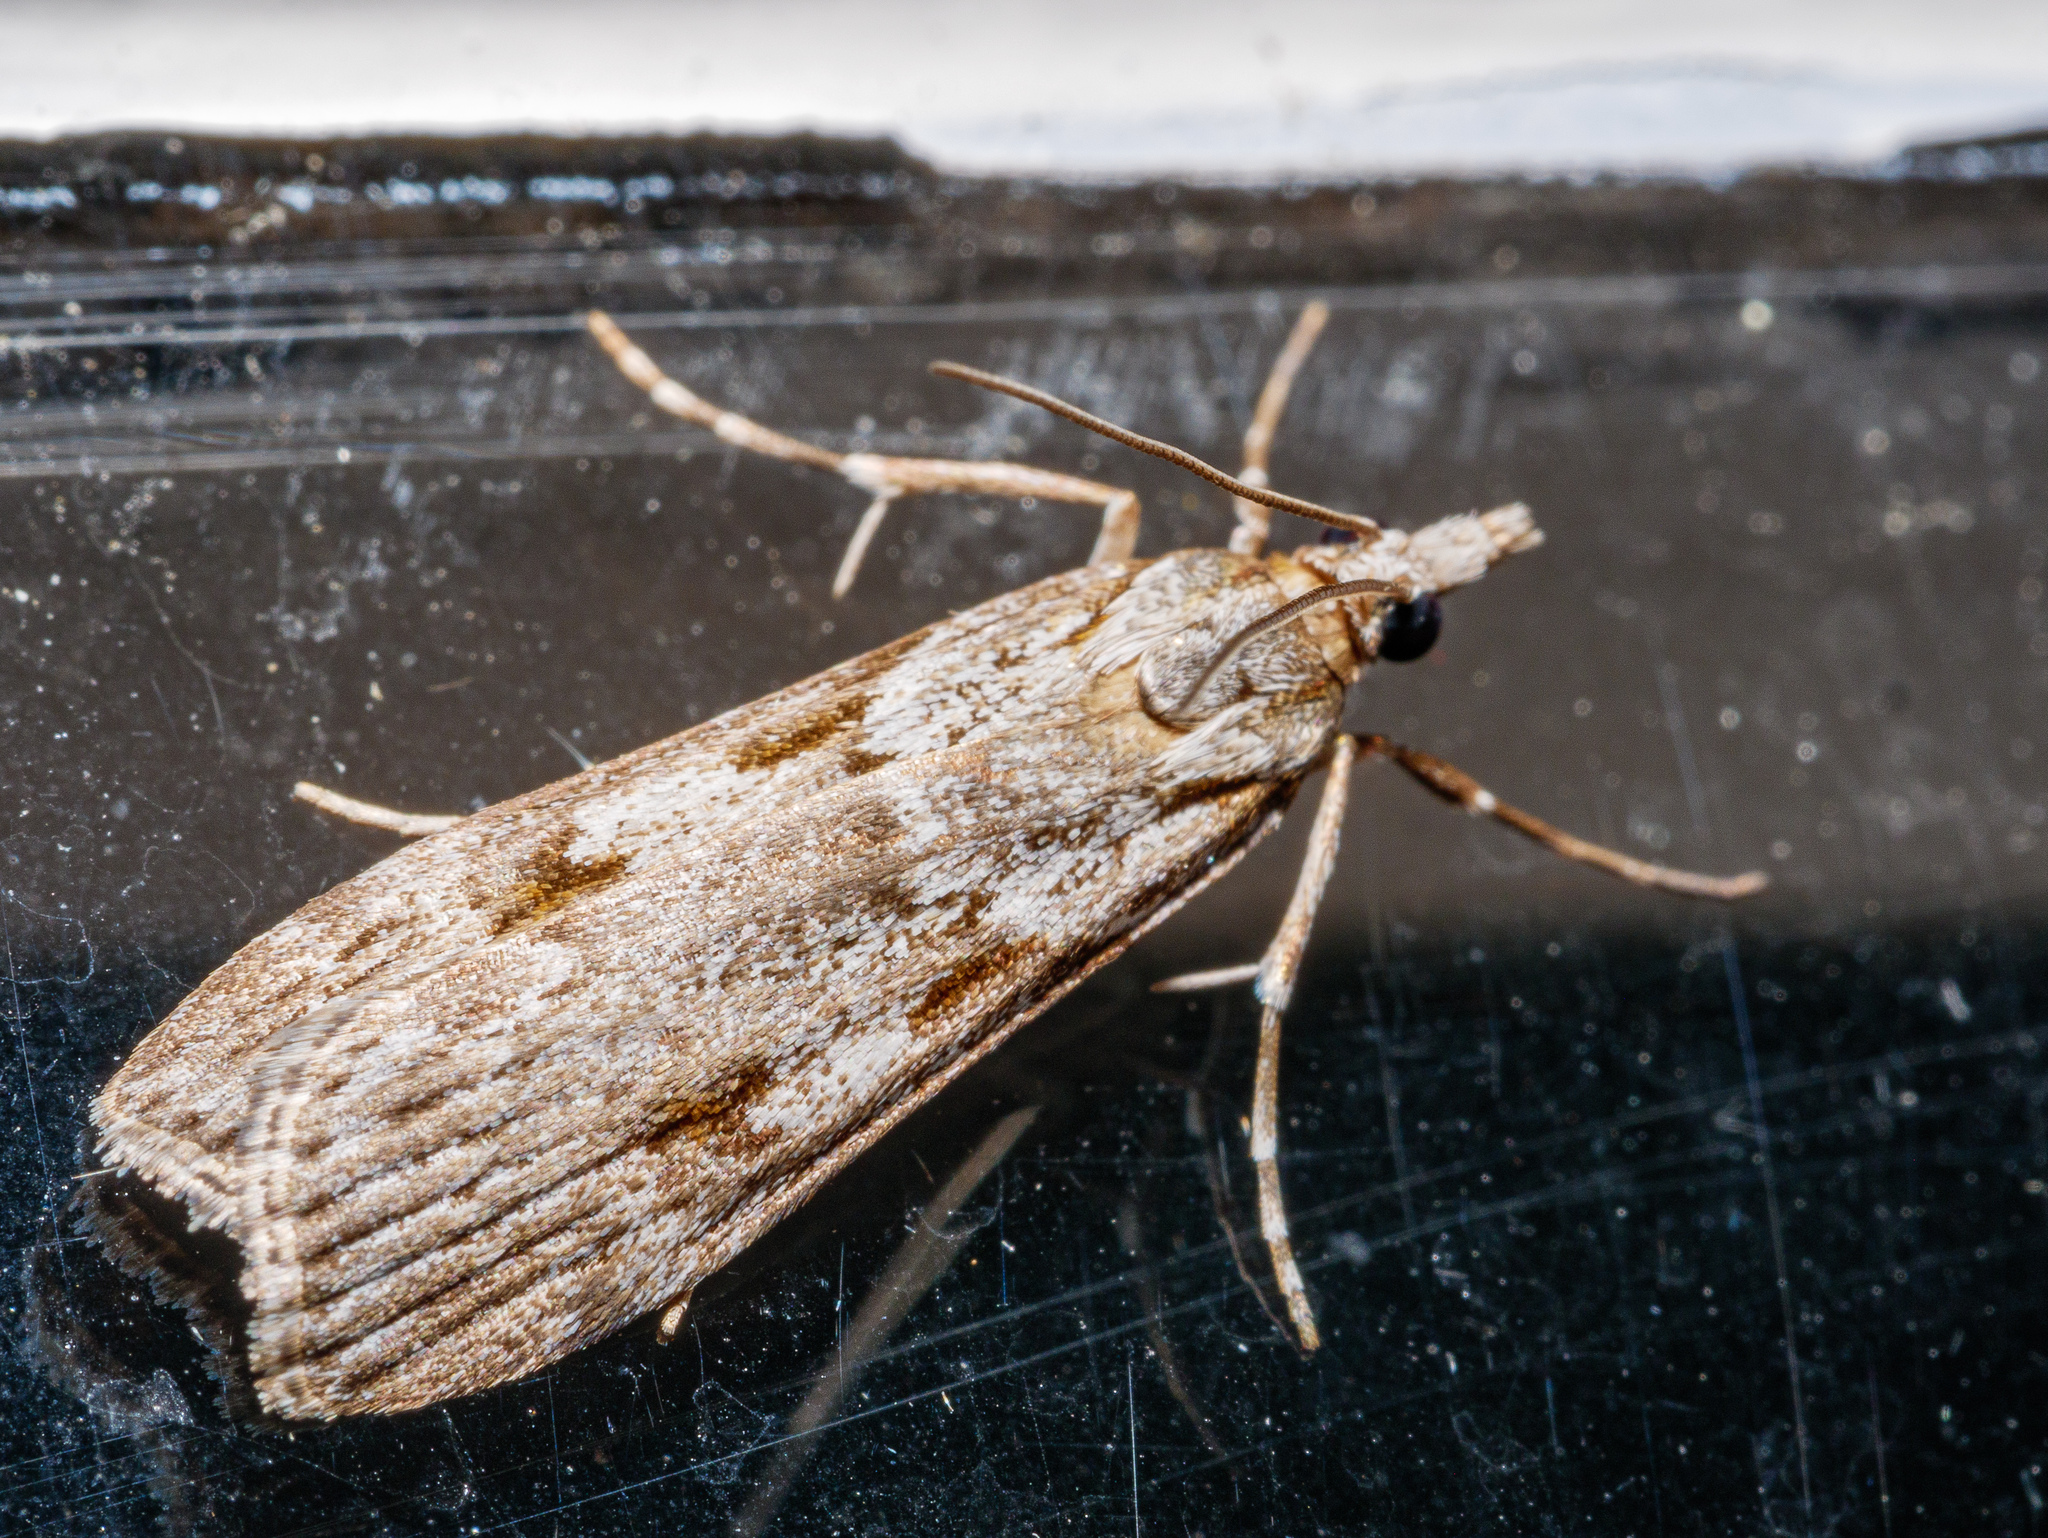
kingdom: Animalia
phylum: Arthropoda
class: Insecta
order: Lepidoptera
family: Crambidae
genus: Scoparia
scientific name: Scoparia halopis
